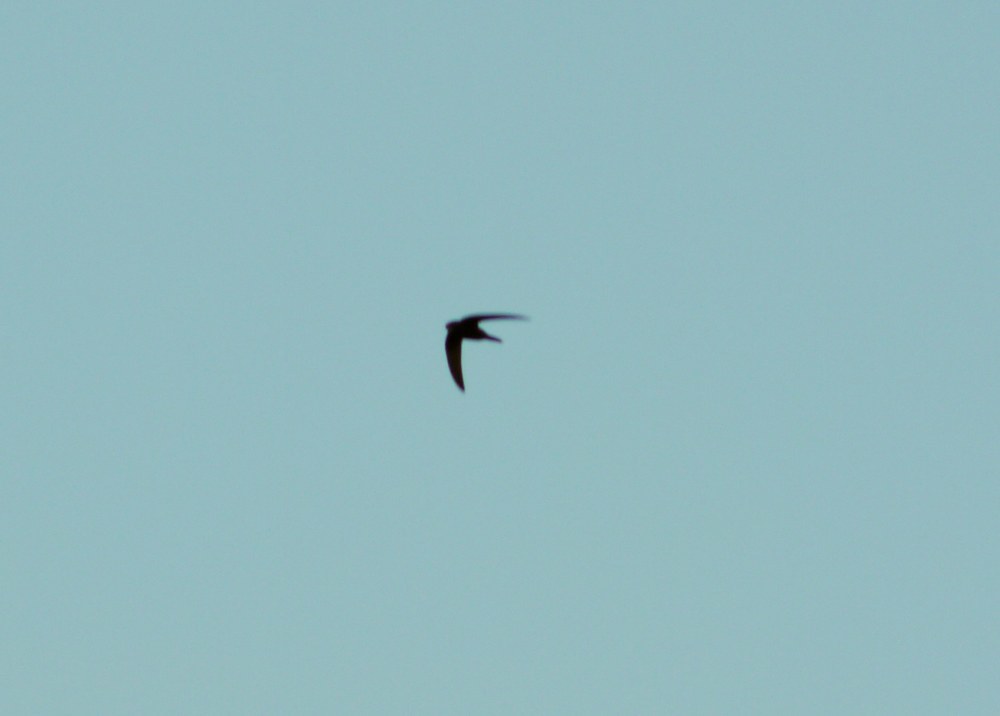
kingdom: Animalia
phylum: Chordata
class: Aves
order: Apodiformes
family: Apodidae
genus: Apus
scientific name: Apus apus
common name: Common swift
